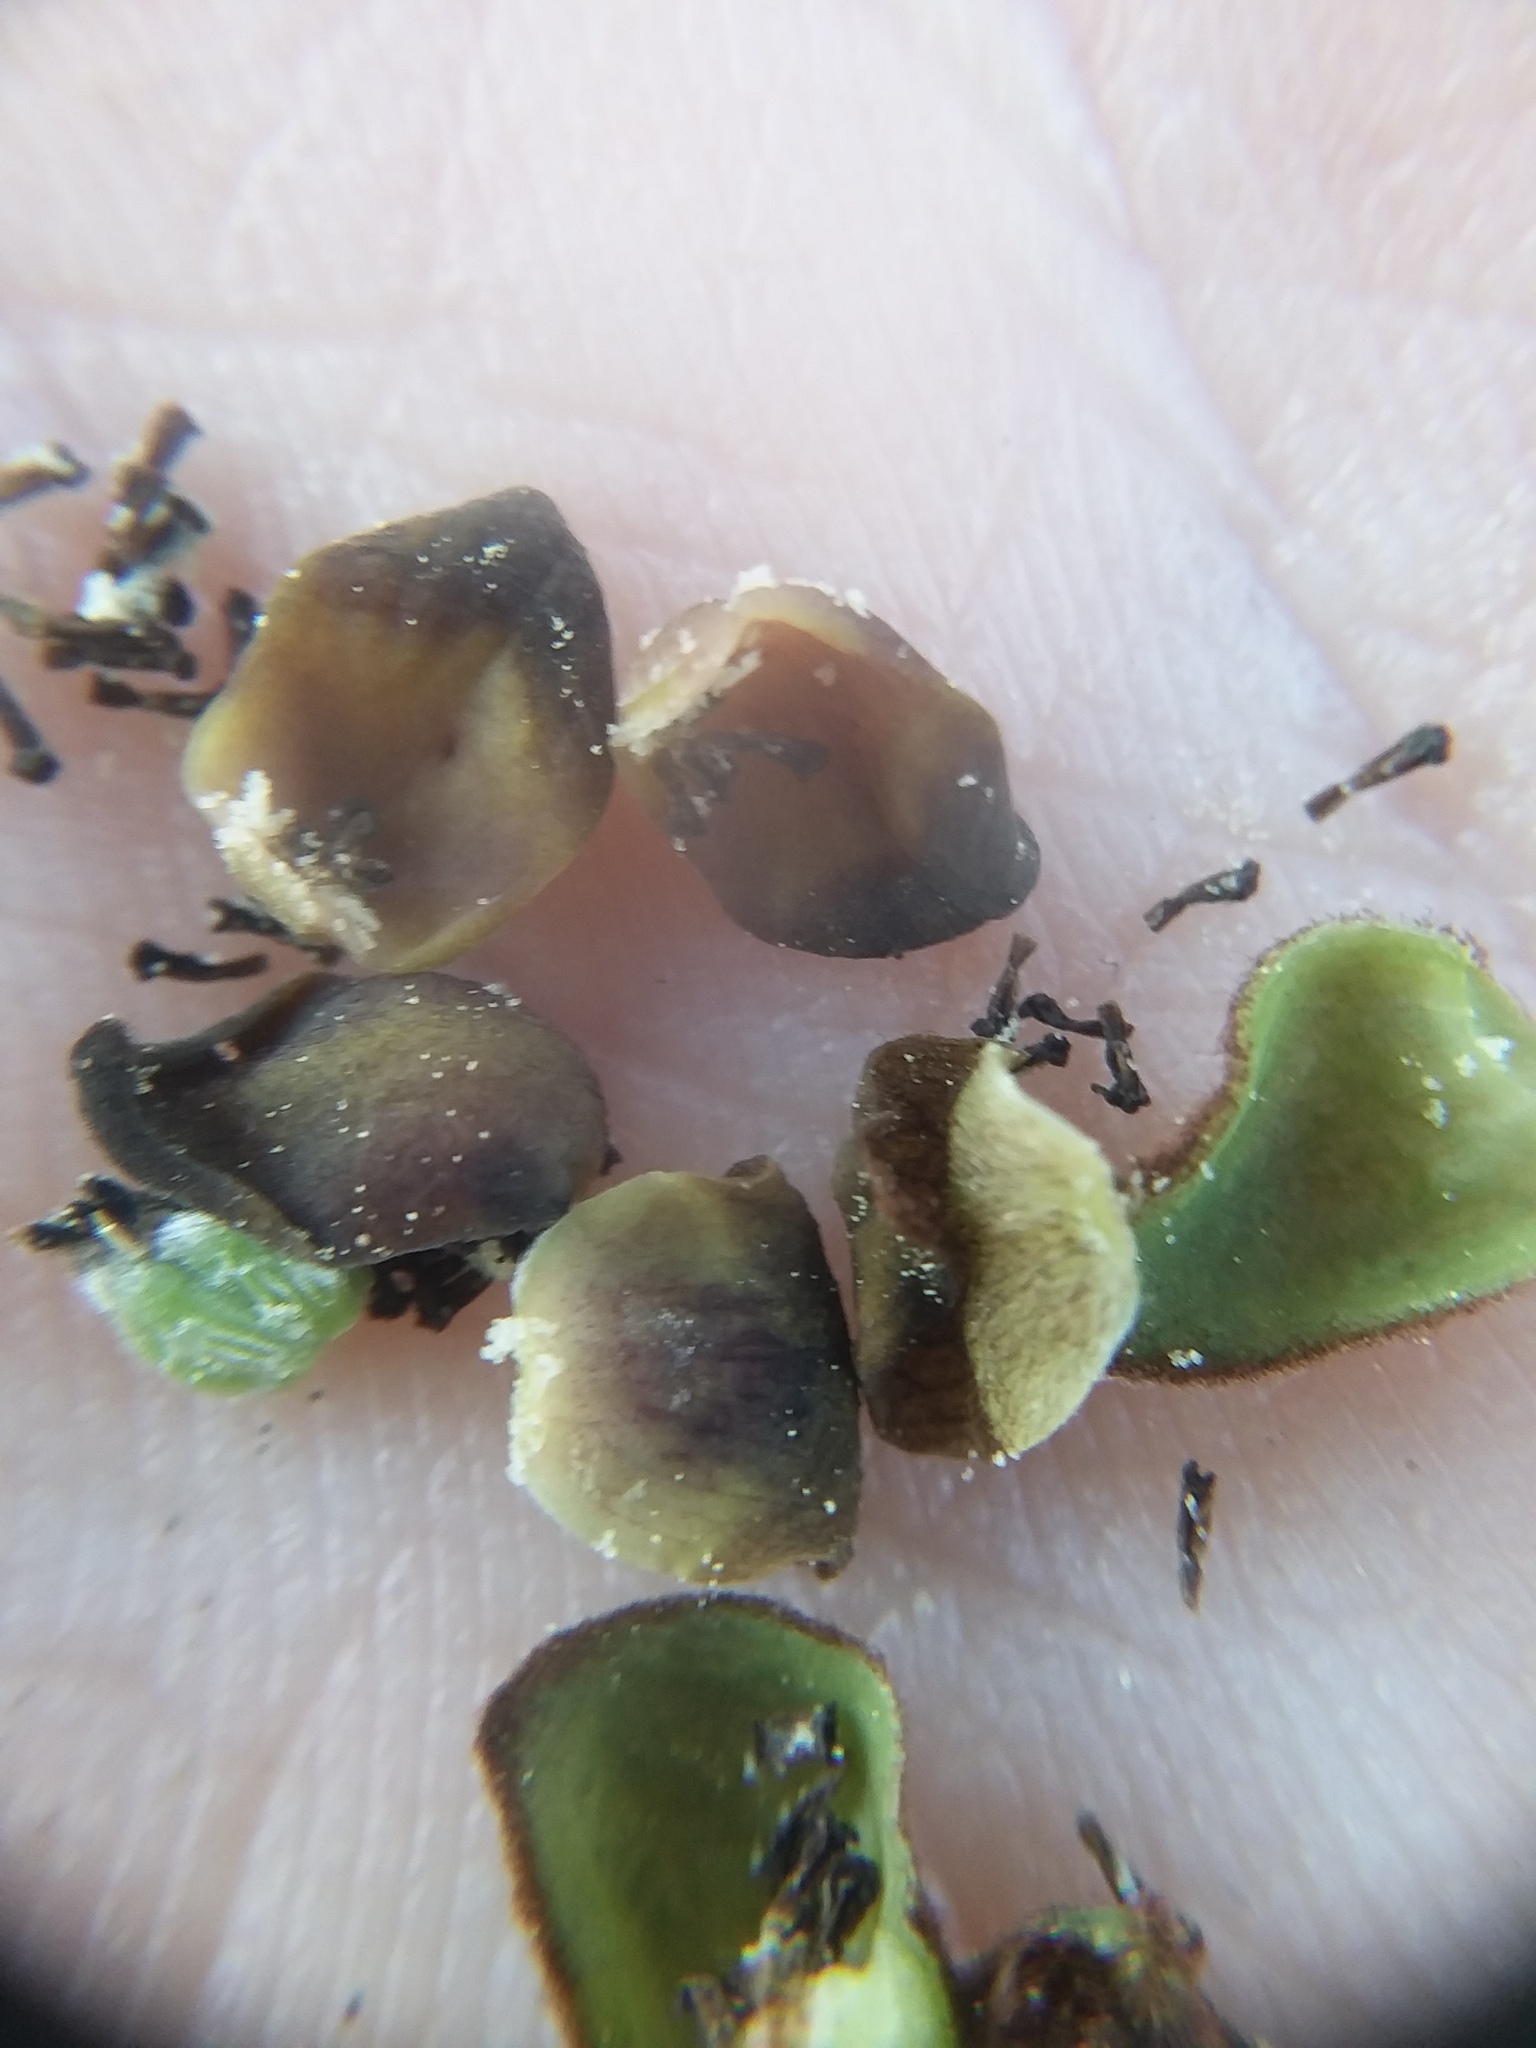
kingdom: Plantae
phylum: Tracheophyta
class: Magnoliopsida
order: Magnoliales
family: Annonaceae
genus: Asimina
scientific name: Asimina parviflora
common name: Dwarf pawpaw
